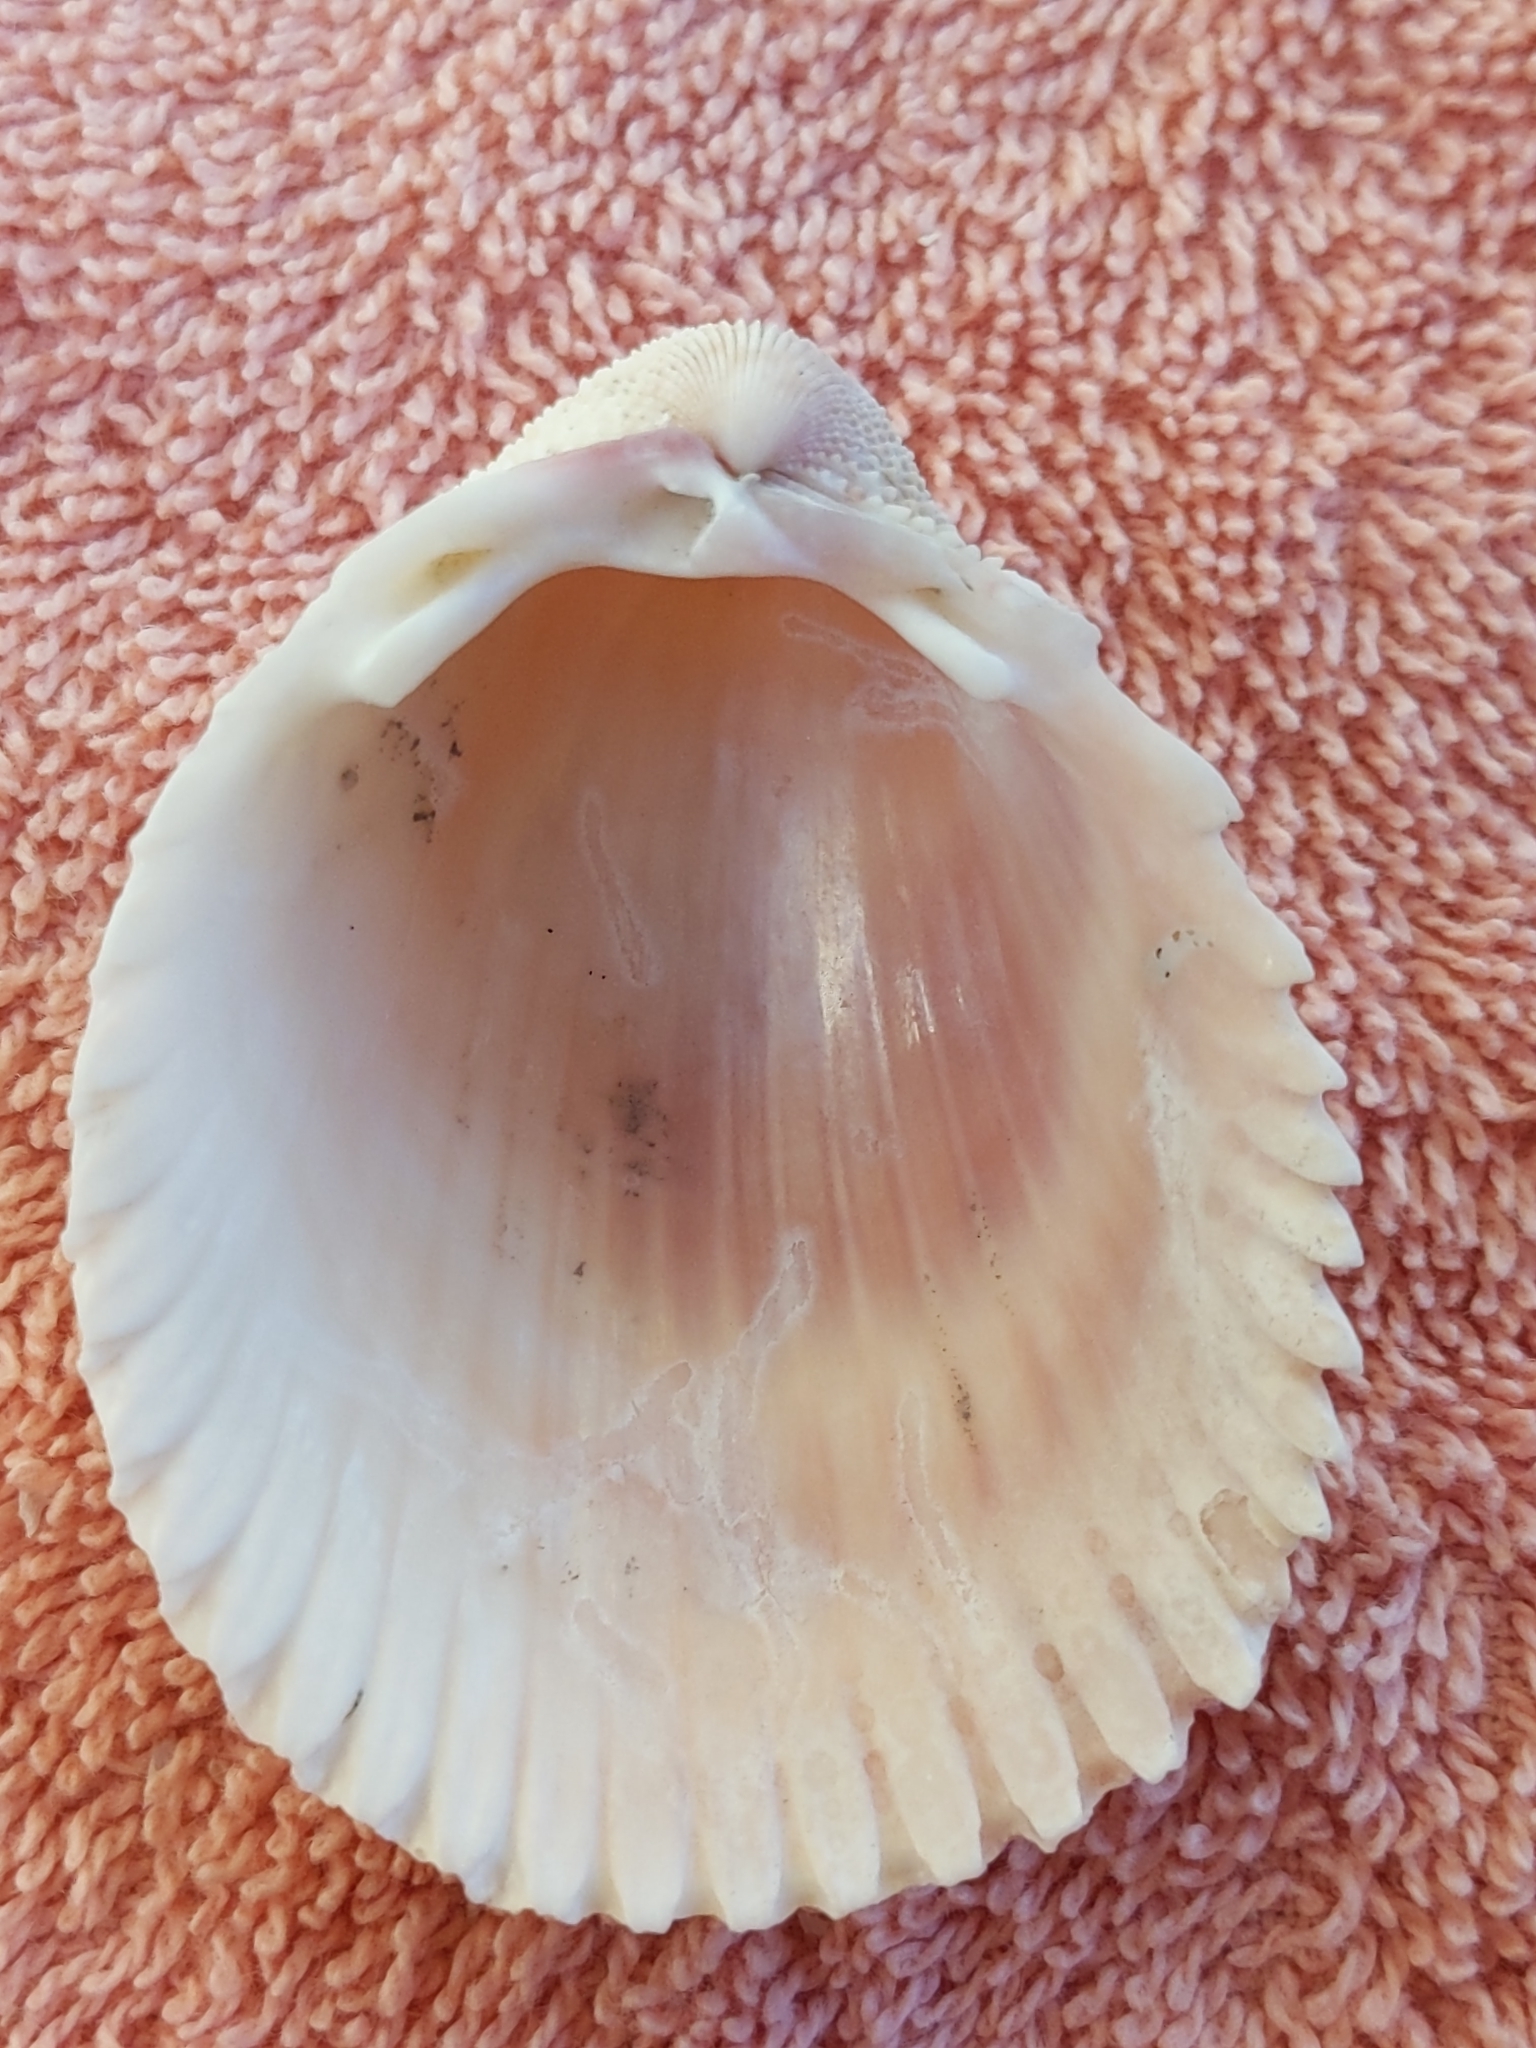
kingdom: Animalia
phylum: Mollusca
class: Bivalvia
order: Cardiida
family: Cardiidae
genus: Trachycardium
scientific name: Trachycardium egmontianum
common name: Florida pricklycockle
